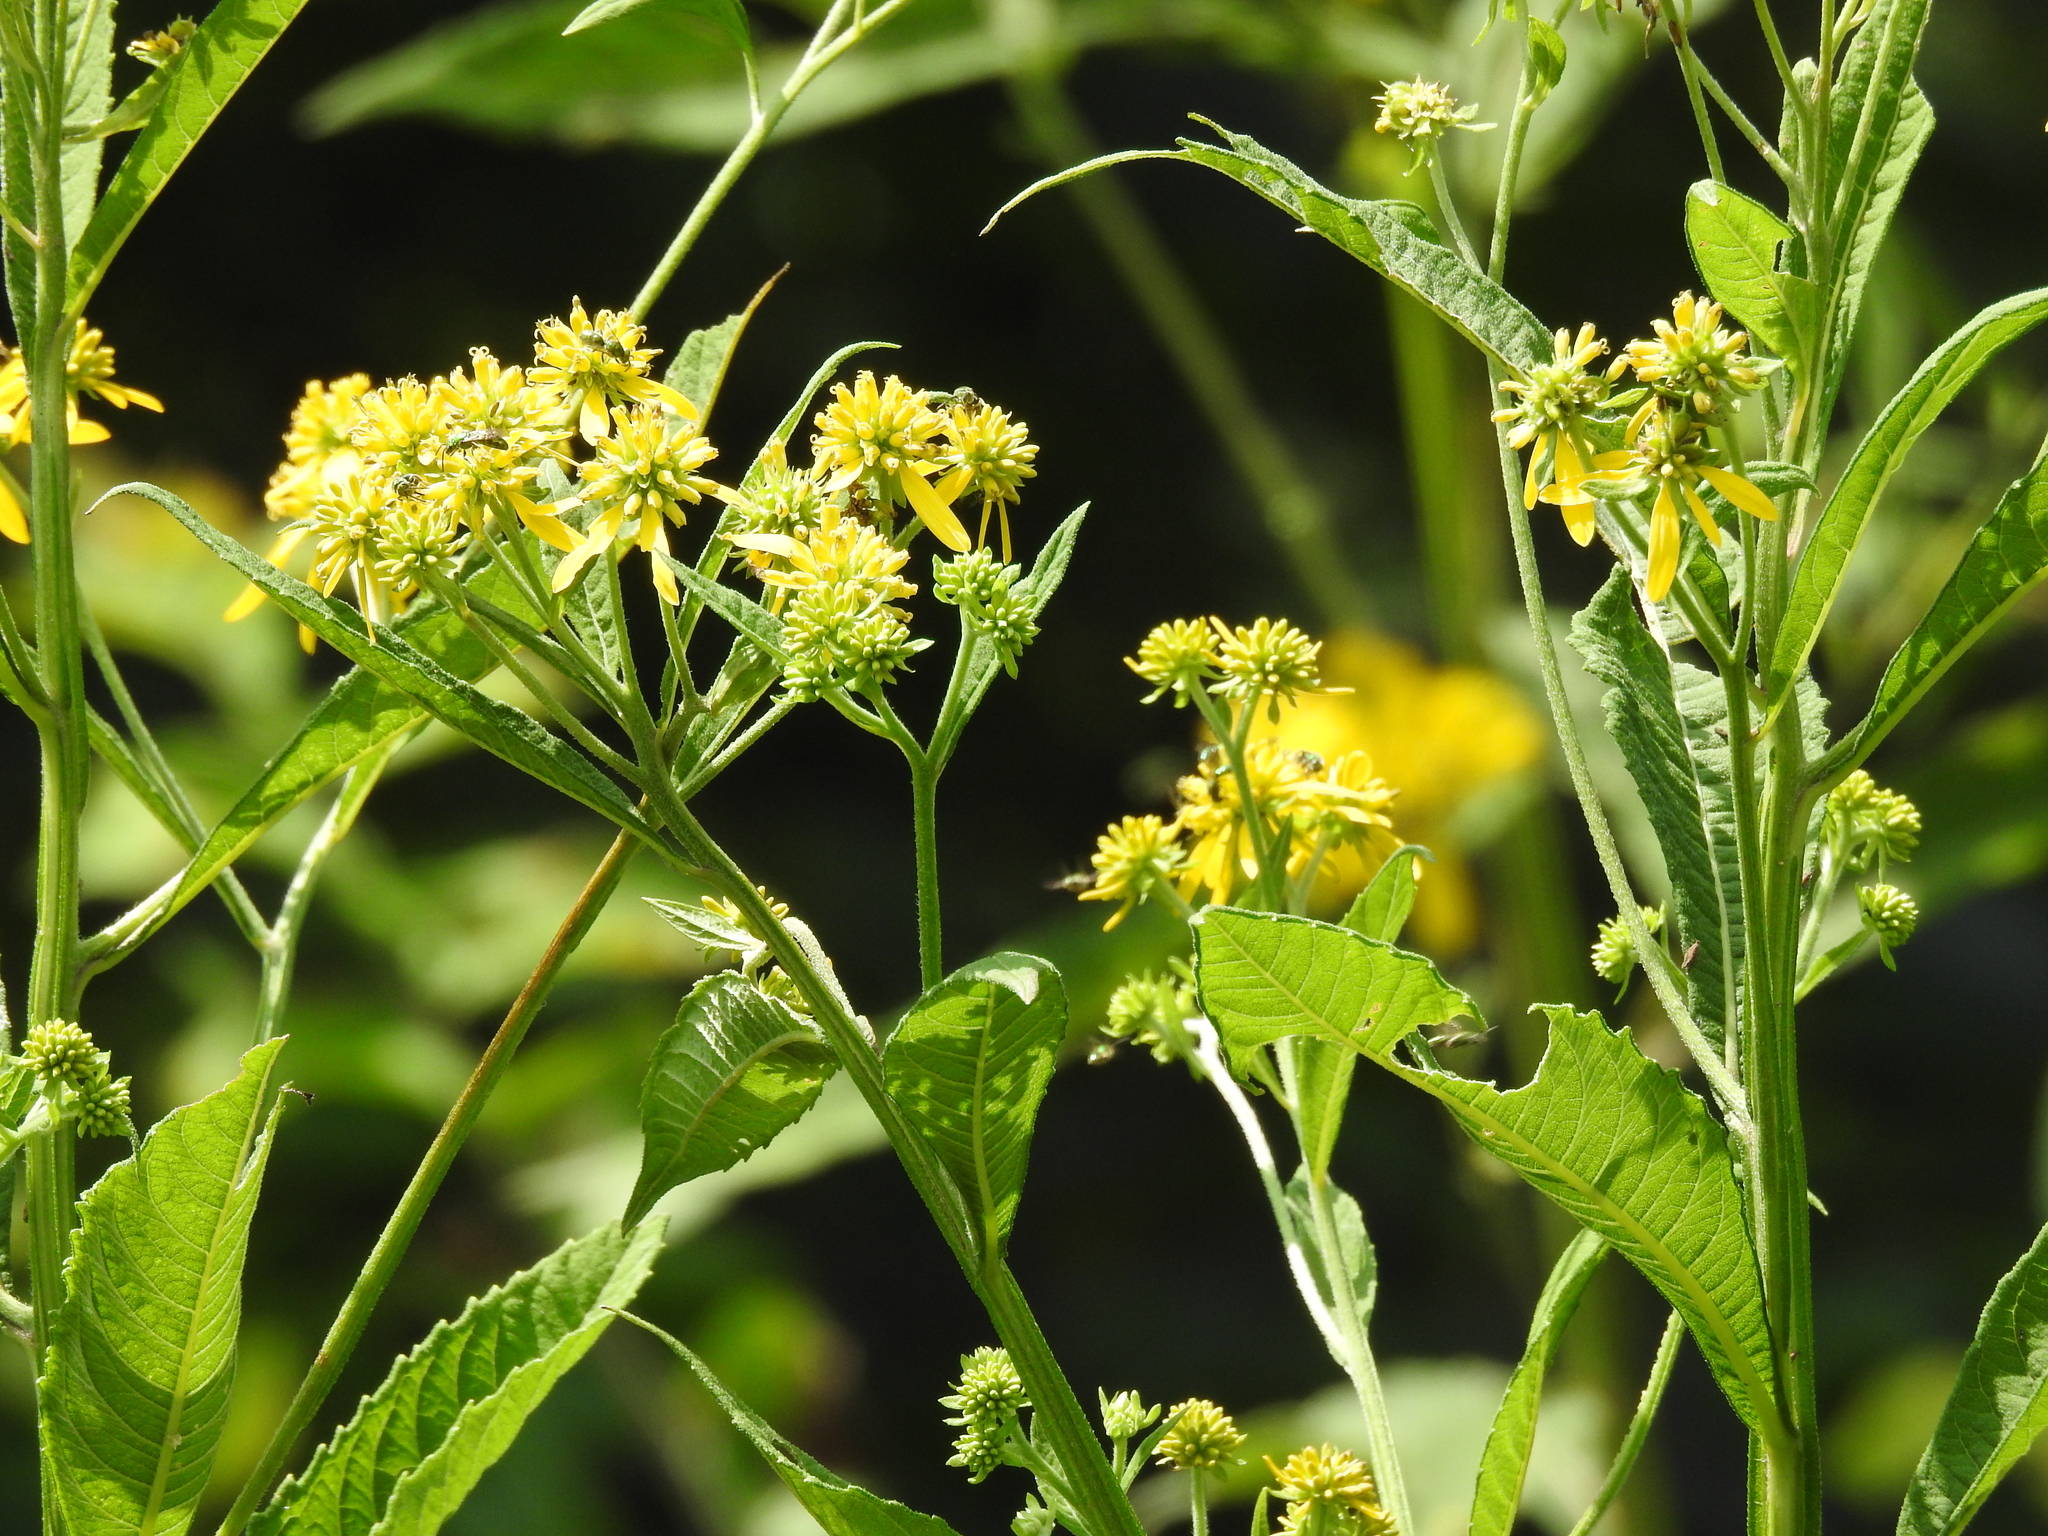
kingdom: Plantae
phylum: Tracheophyta
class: Magnoliopsida
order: Asterales
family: Asteraceae
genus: Verbesina
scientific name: Verbesina alternifolia
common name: Wingstem
